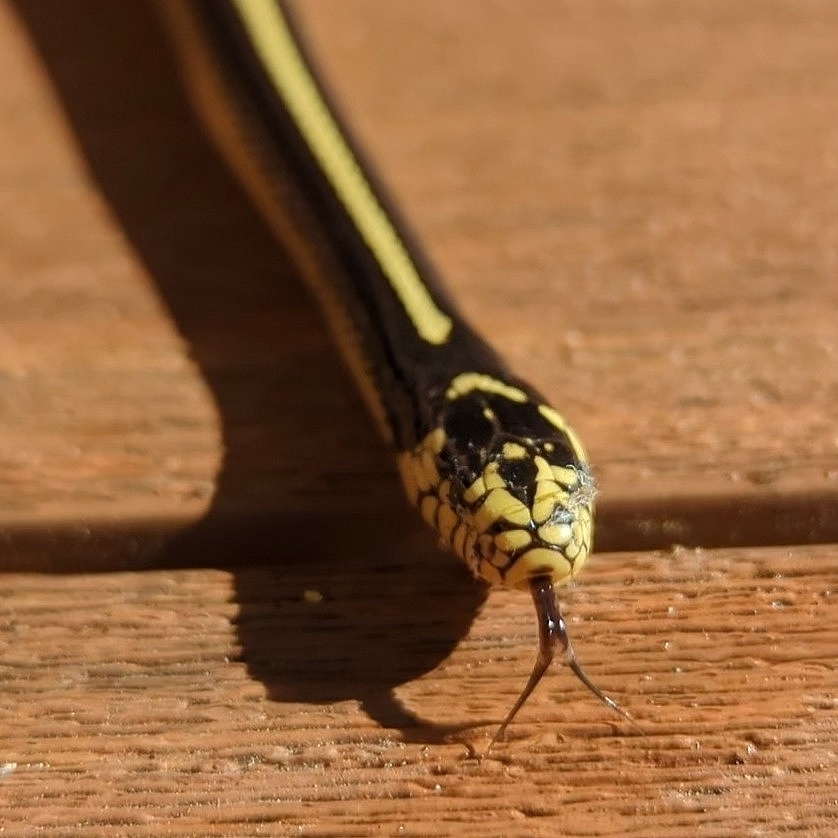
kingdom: Animalia
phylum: Chordata
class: Squamata
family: Colubridae
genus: Lampropeltis
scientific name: Lampropeltis californiae
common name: California kingsnake
